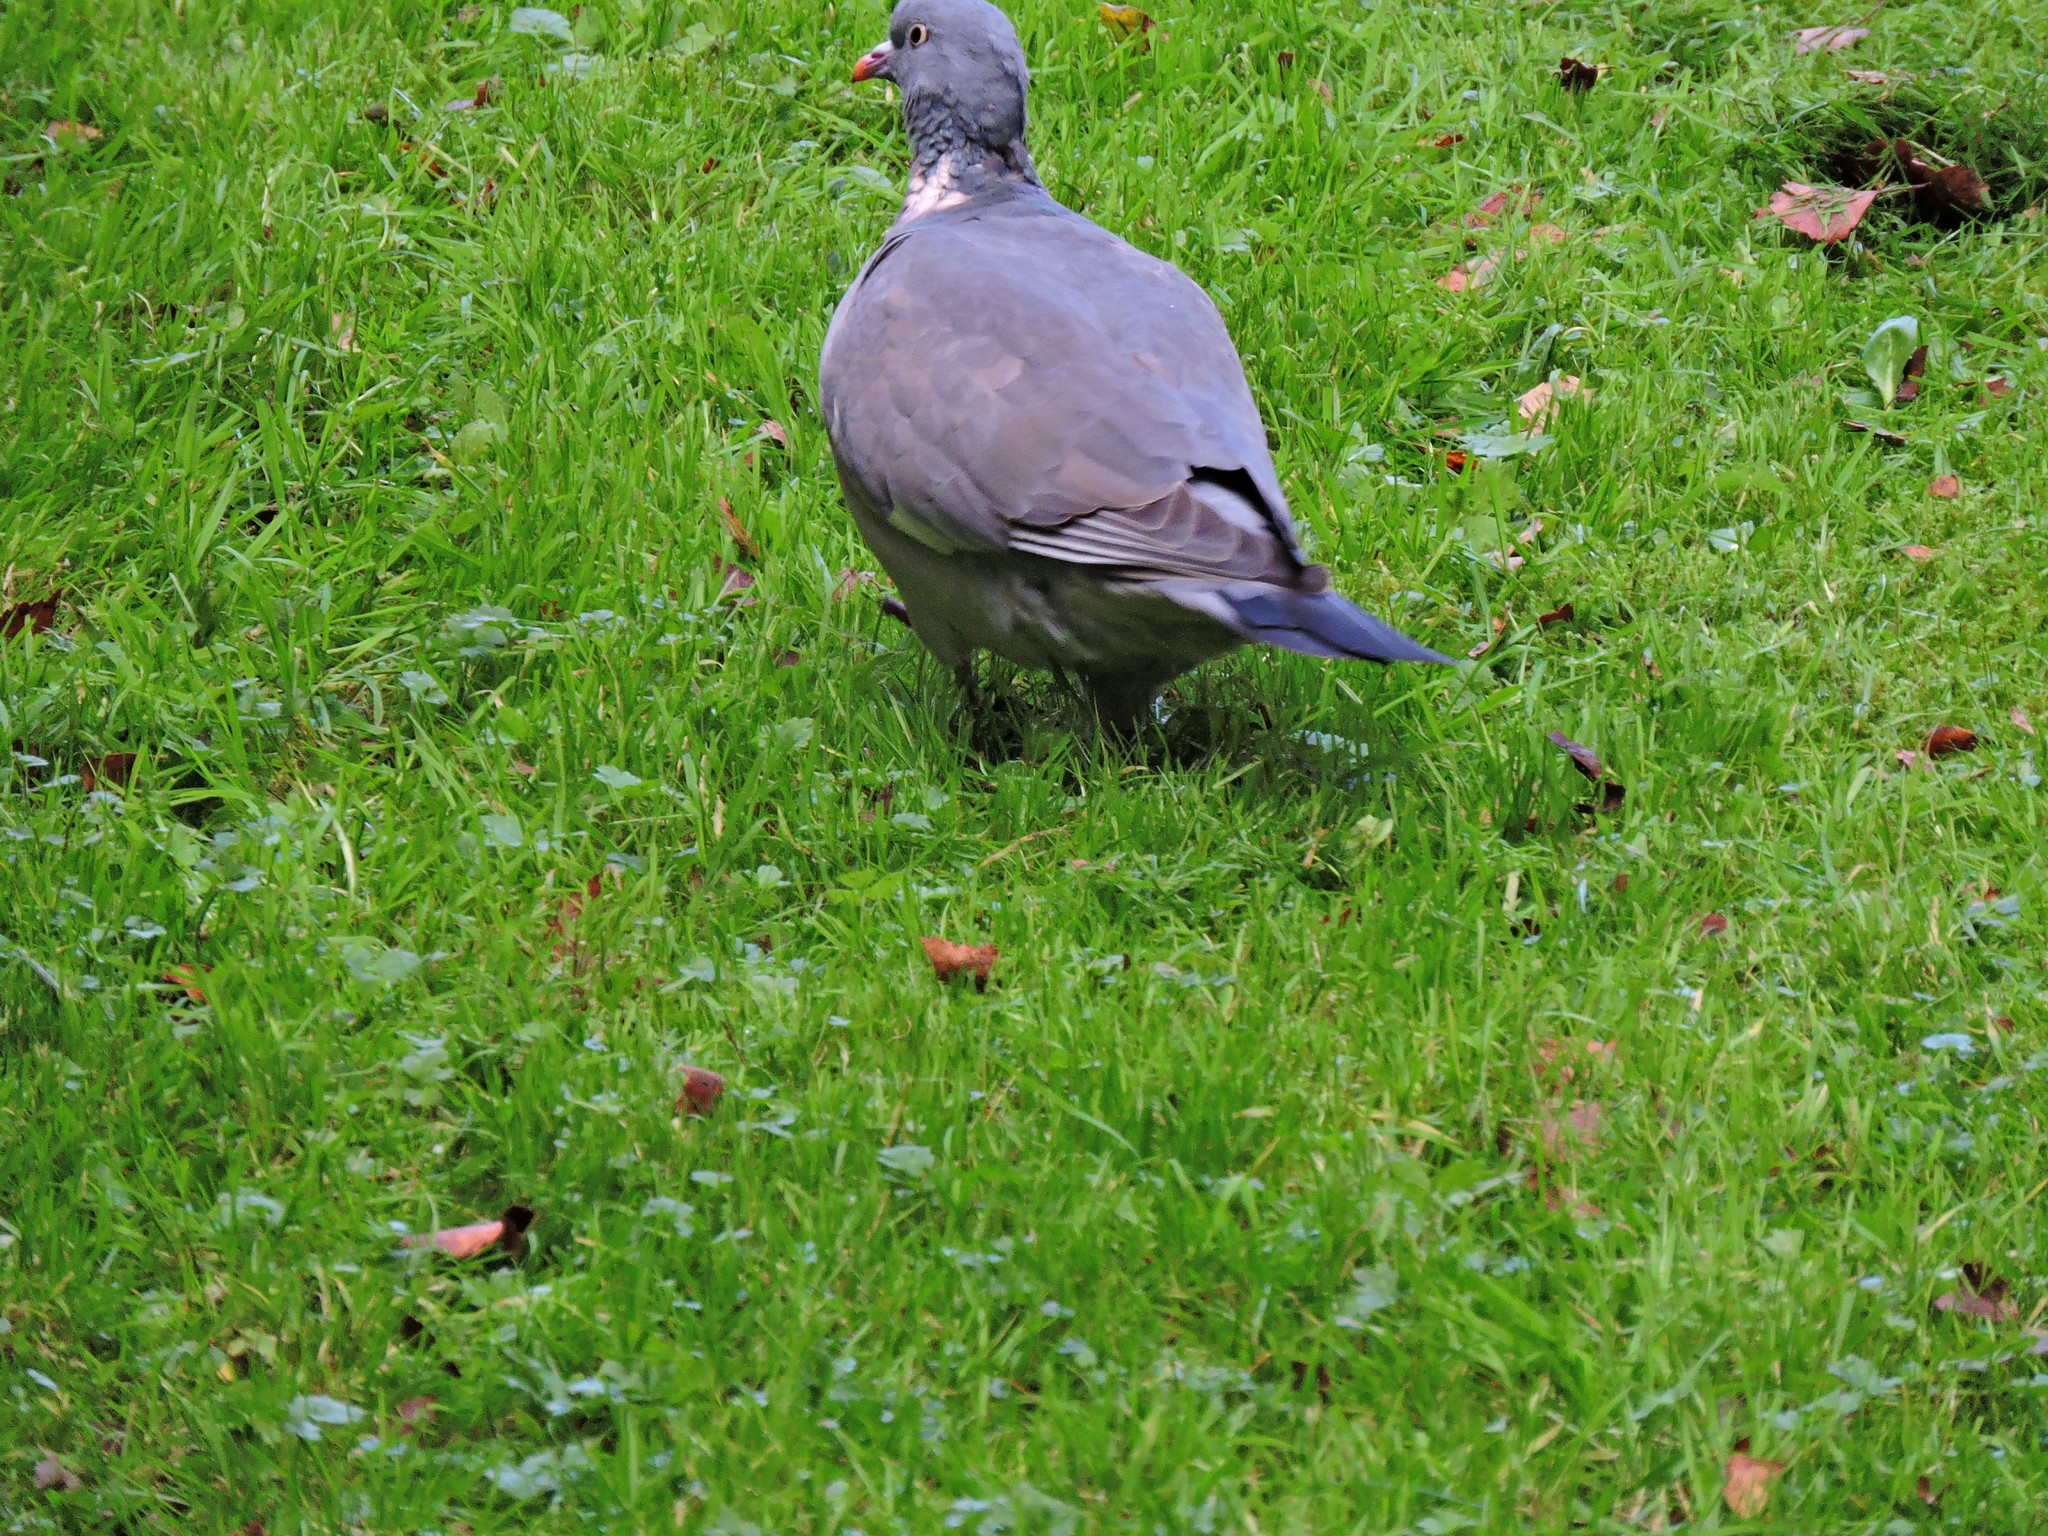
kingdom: Animalia
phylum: Chordata
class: Aves
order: Columbiformes
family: Columbidae
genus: Columba
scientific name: Columba palumbus
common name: Common wood pigeon
